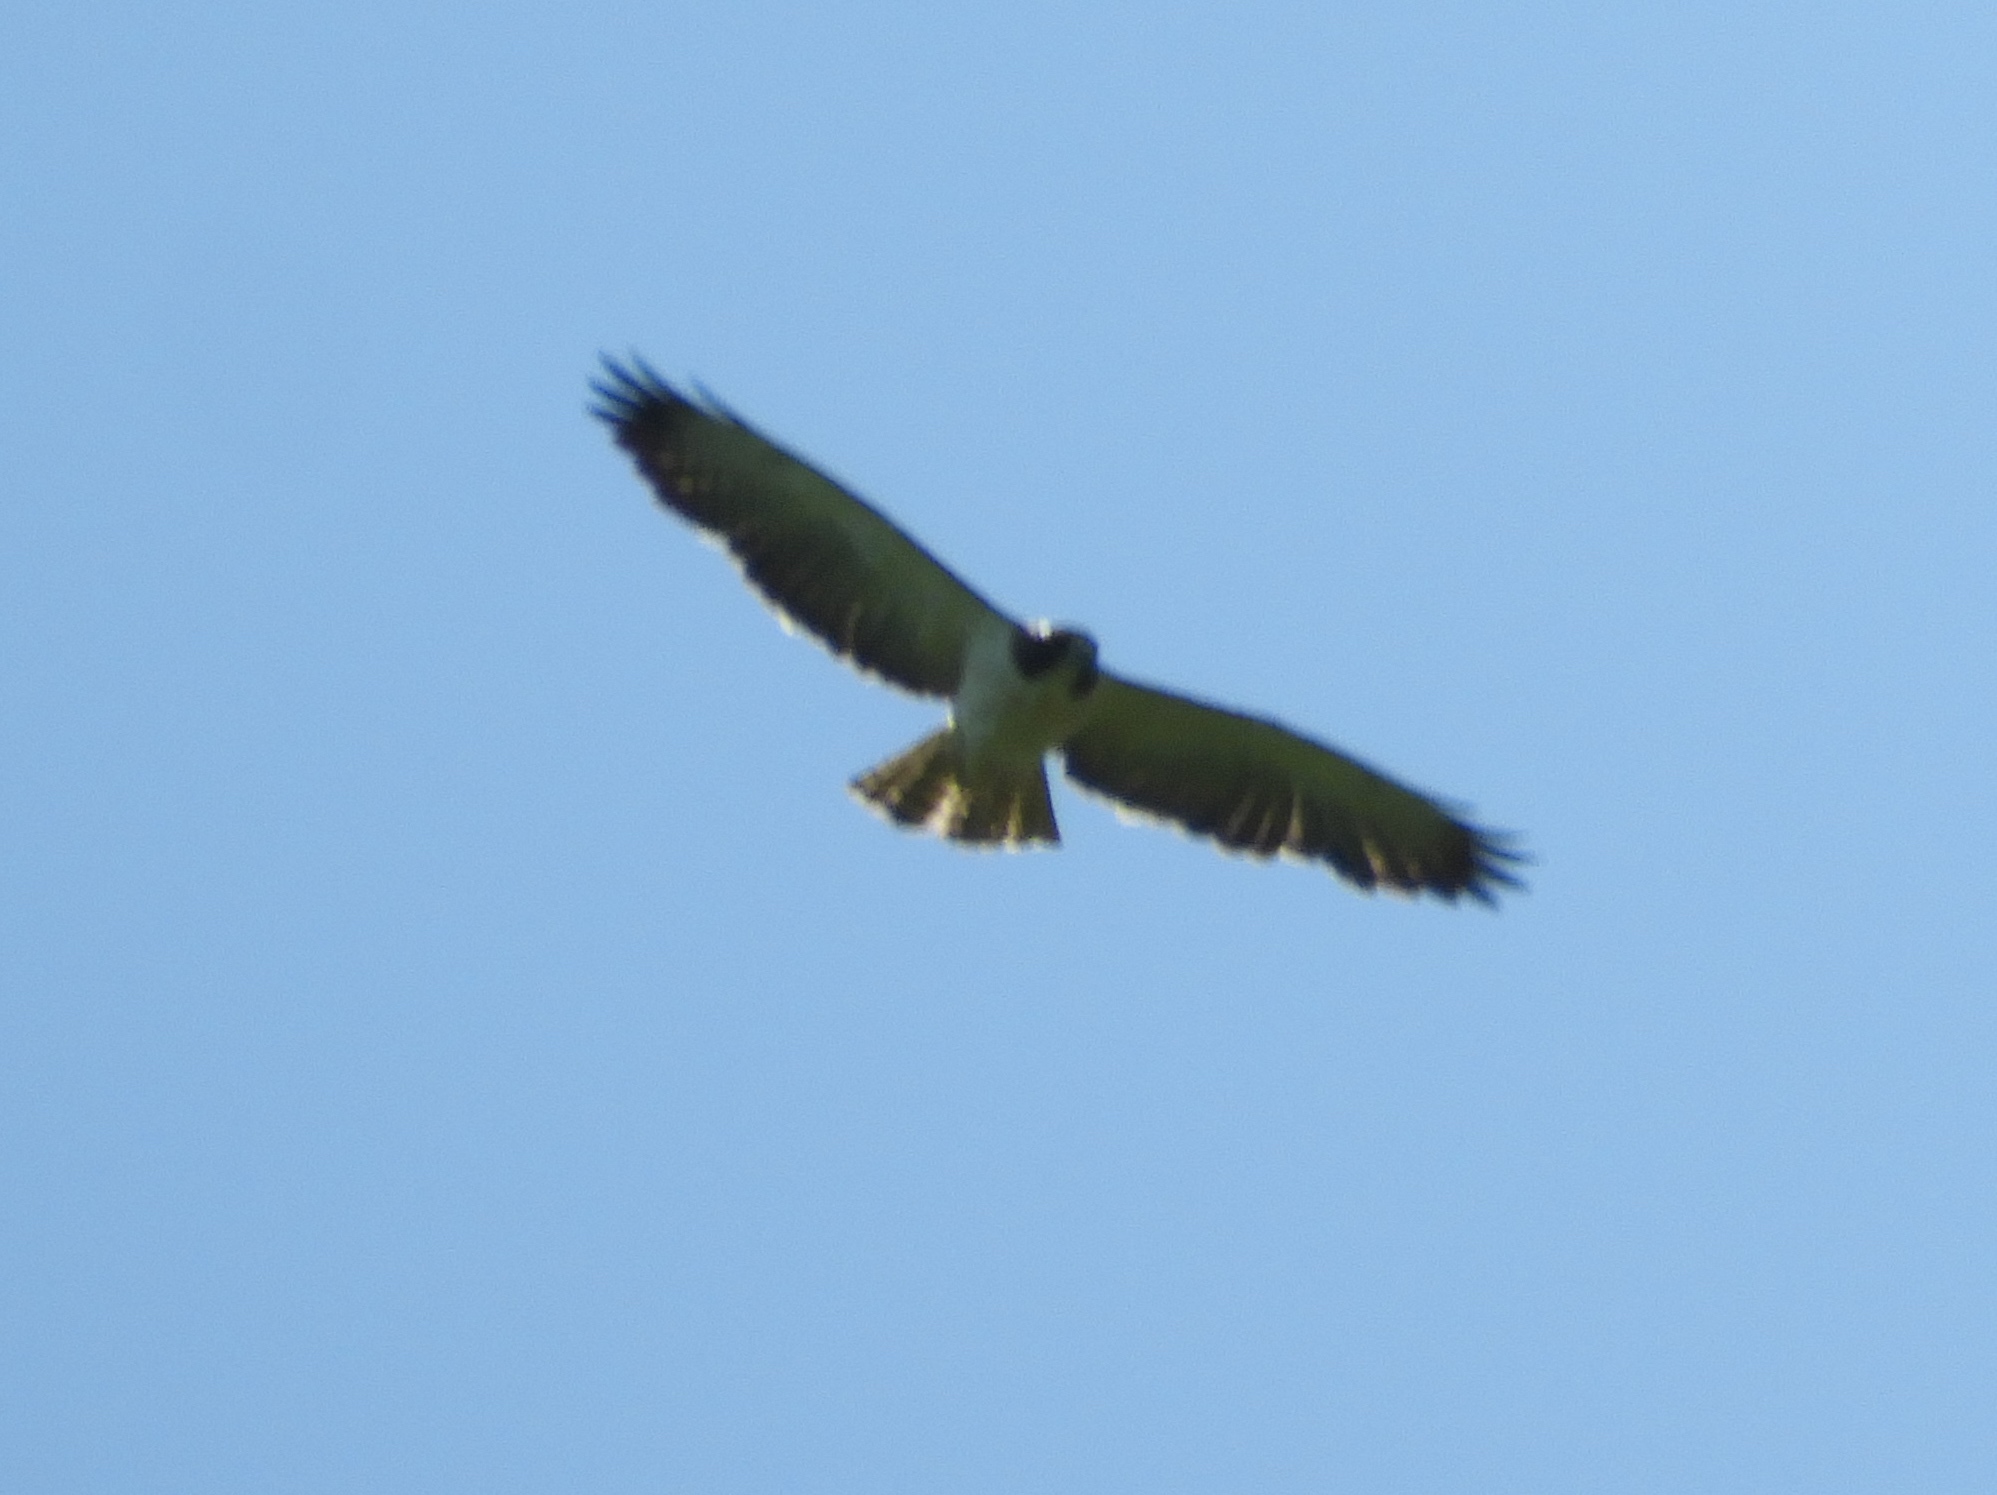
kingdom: Animalia
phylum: Chordata
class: Aves
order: Accipitriformes
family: Accipitridae
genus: Buteo
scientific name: Buteo brachyurus
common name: Short-tailed hawk
